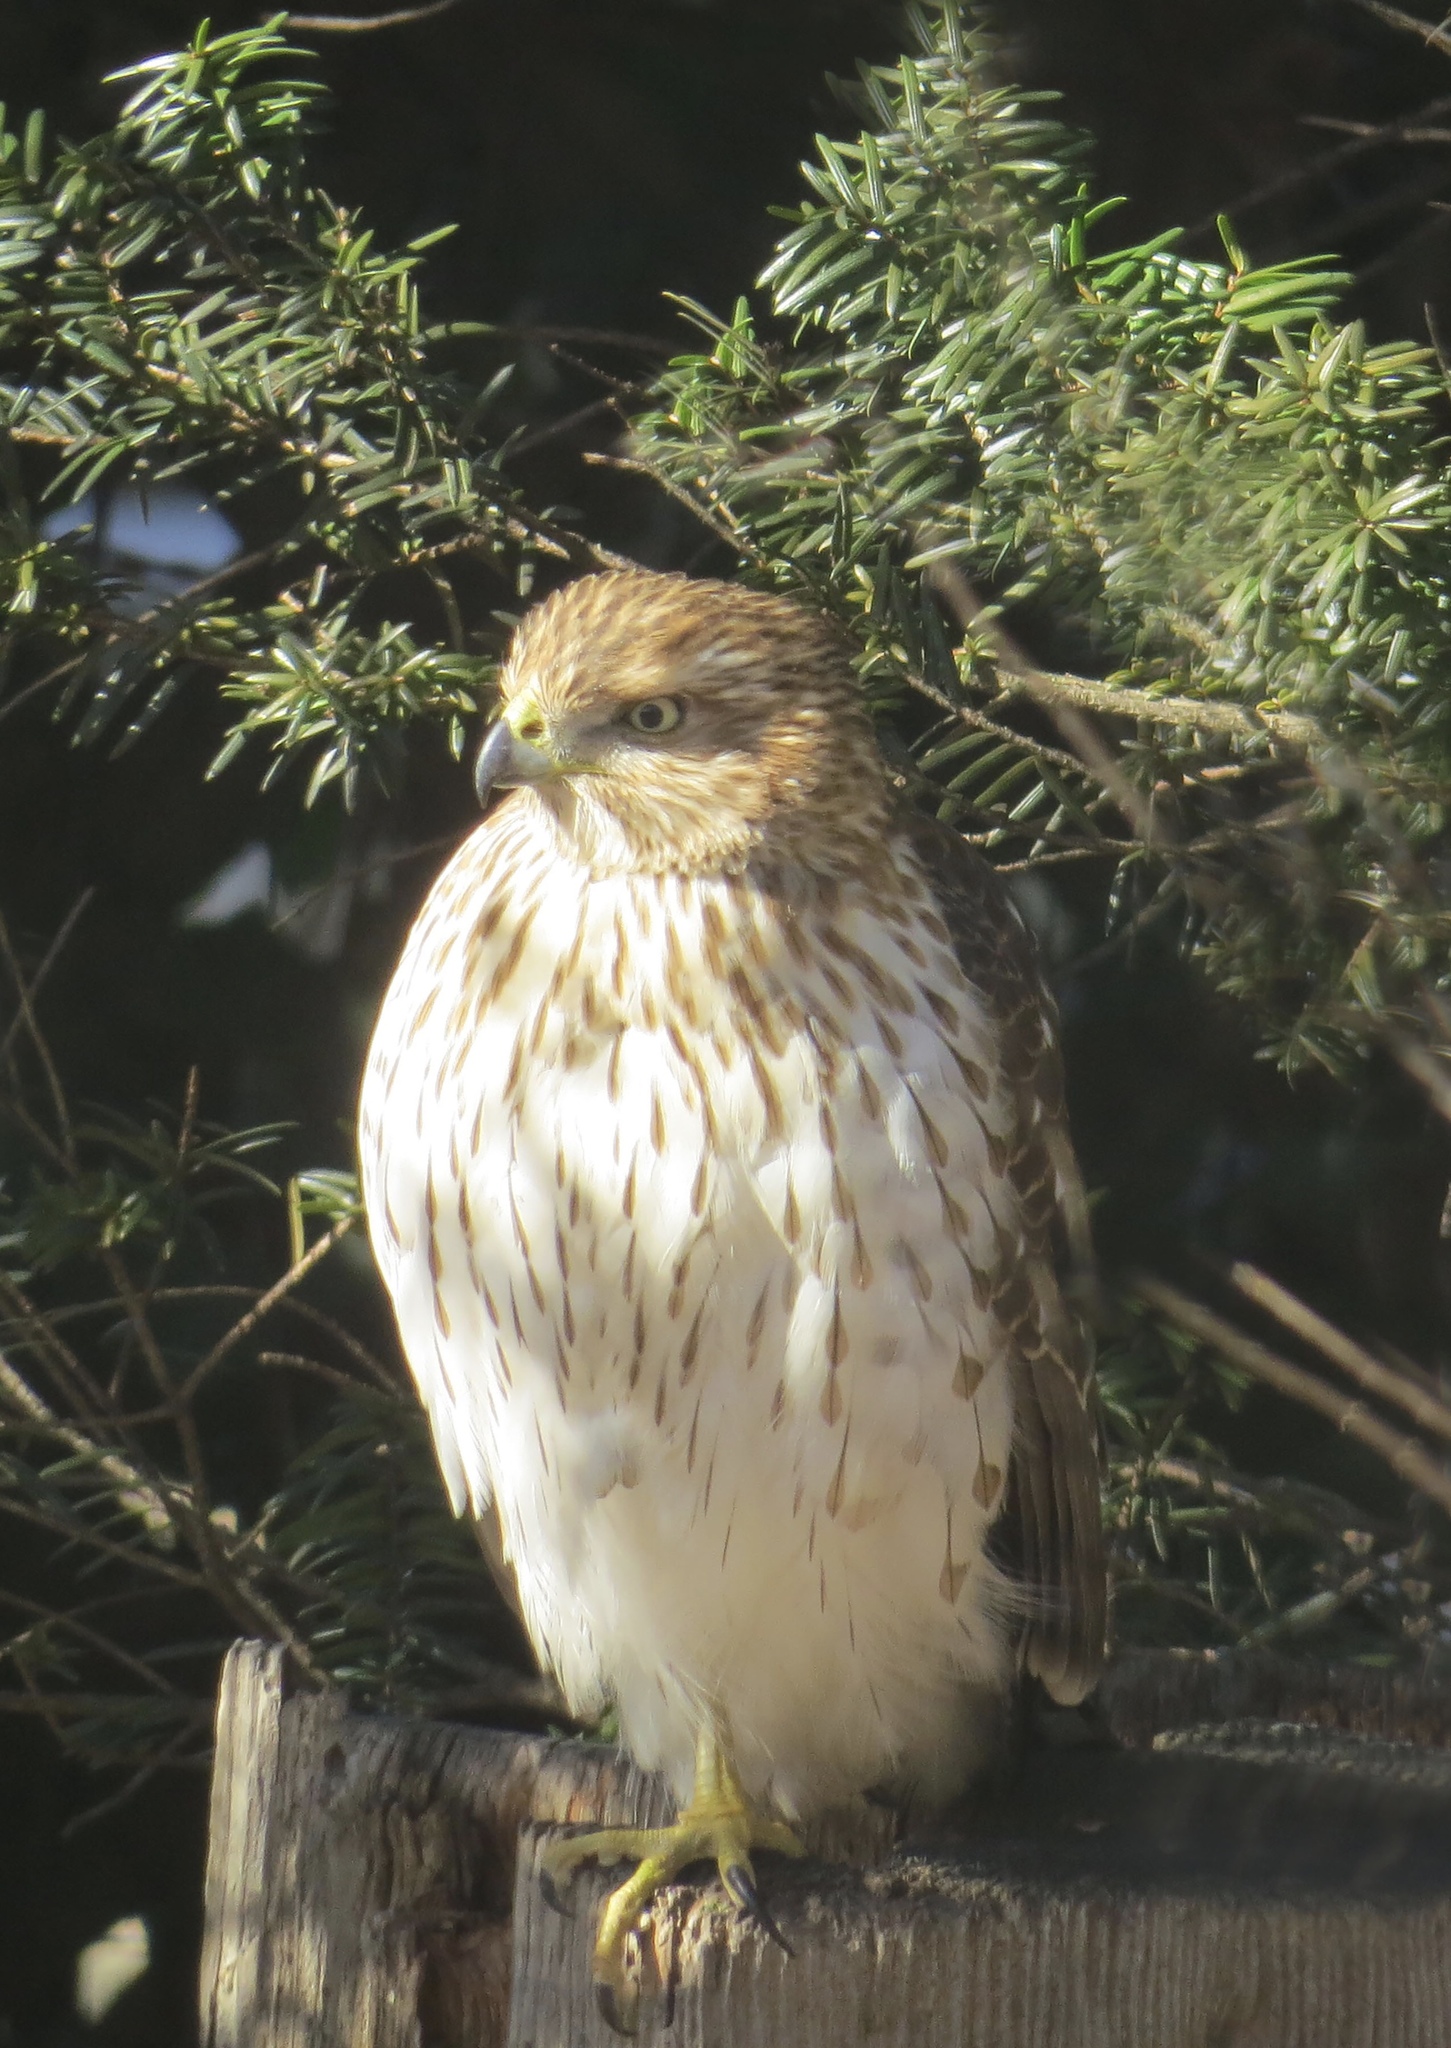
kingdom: Animalia
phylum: Chordata
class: Aves
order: Accipitriformes
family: Accipitridae
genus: Accipiter
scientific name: Accipiter cooperii
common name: Cooper's hawk
